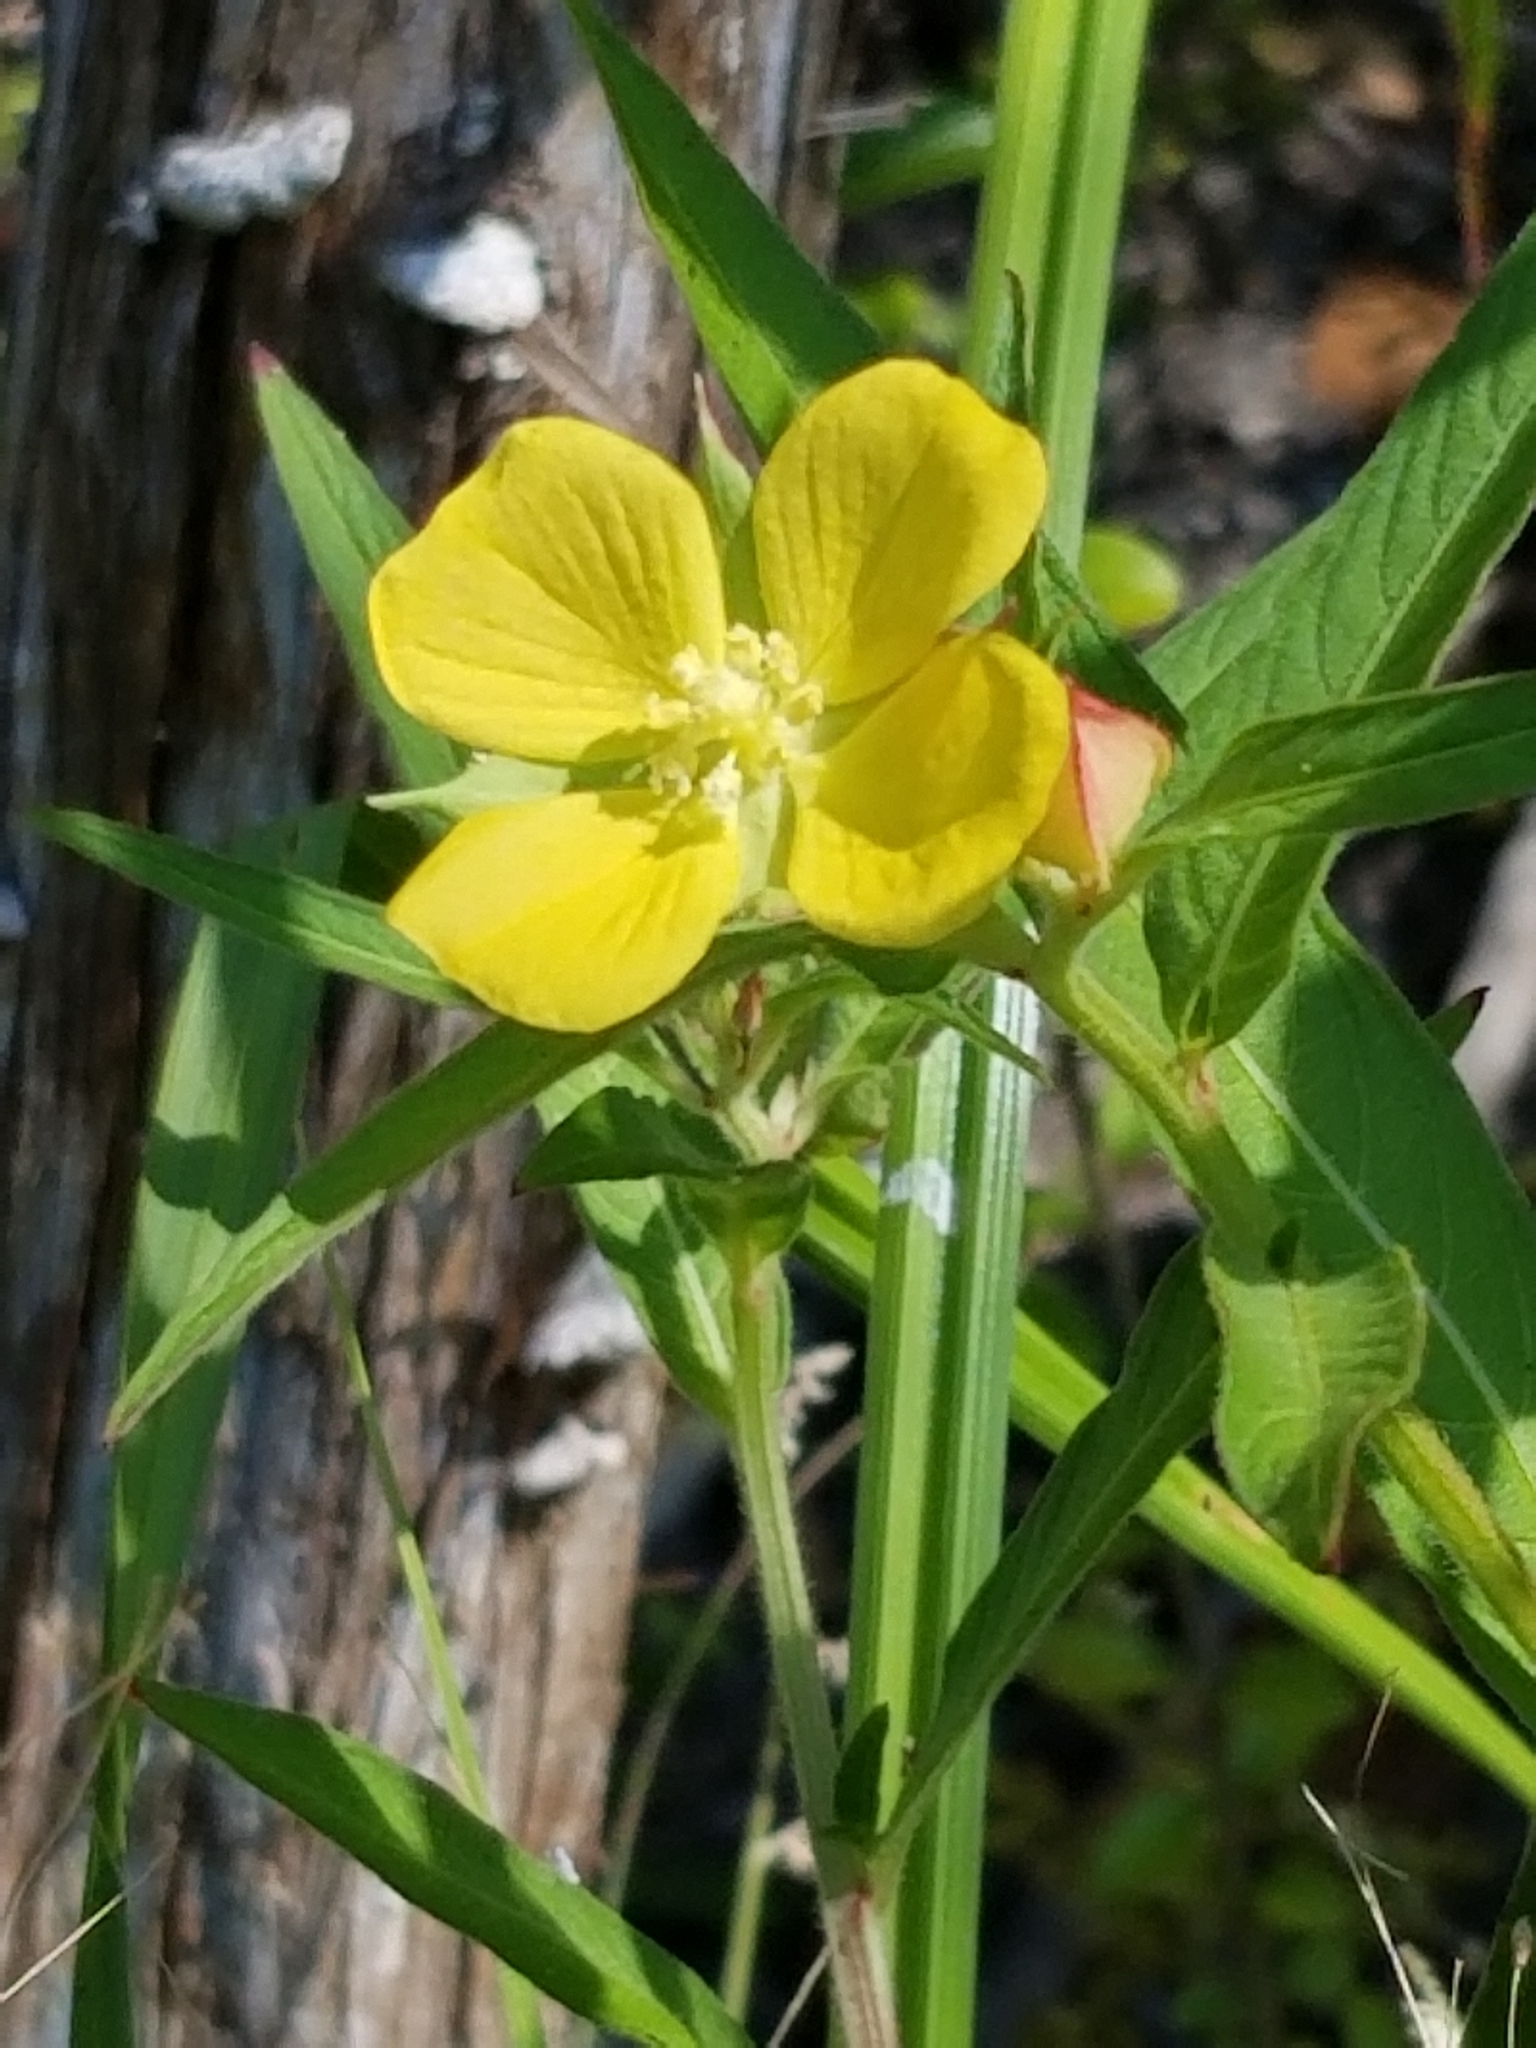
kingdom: Plantae
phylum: Tracheophyta
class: Magnoliopsida
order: Myrtales
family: Onagraceae
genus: Ludwigia
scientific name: Ludwigia octovalvis
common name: Water-primrose
